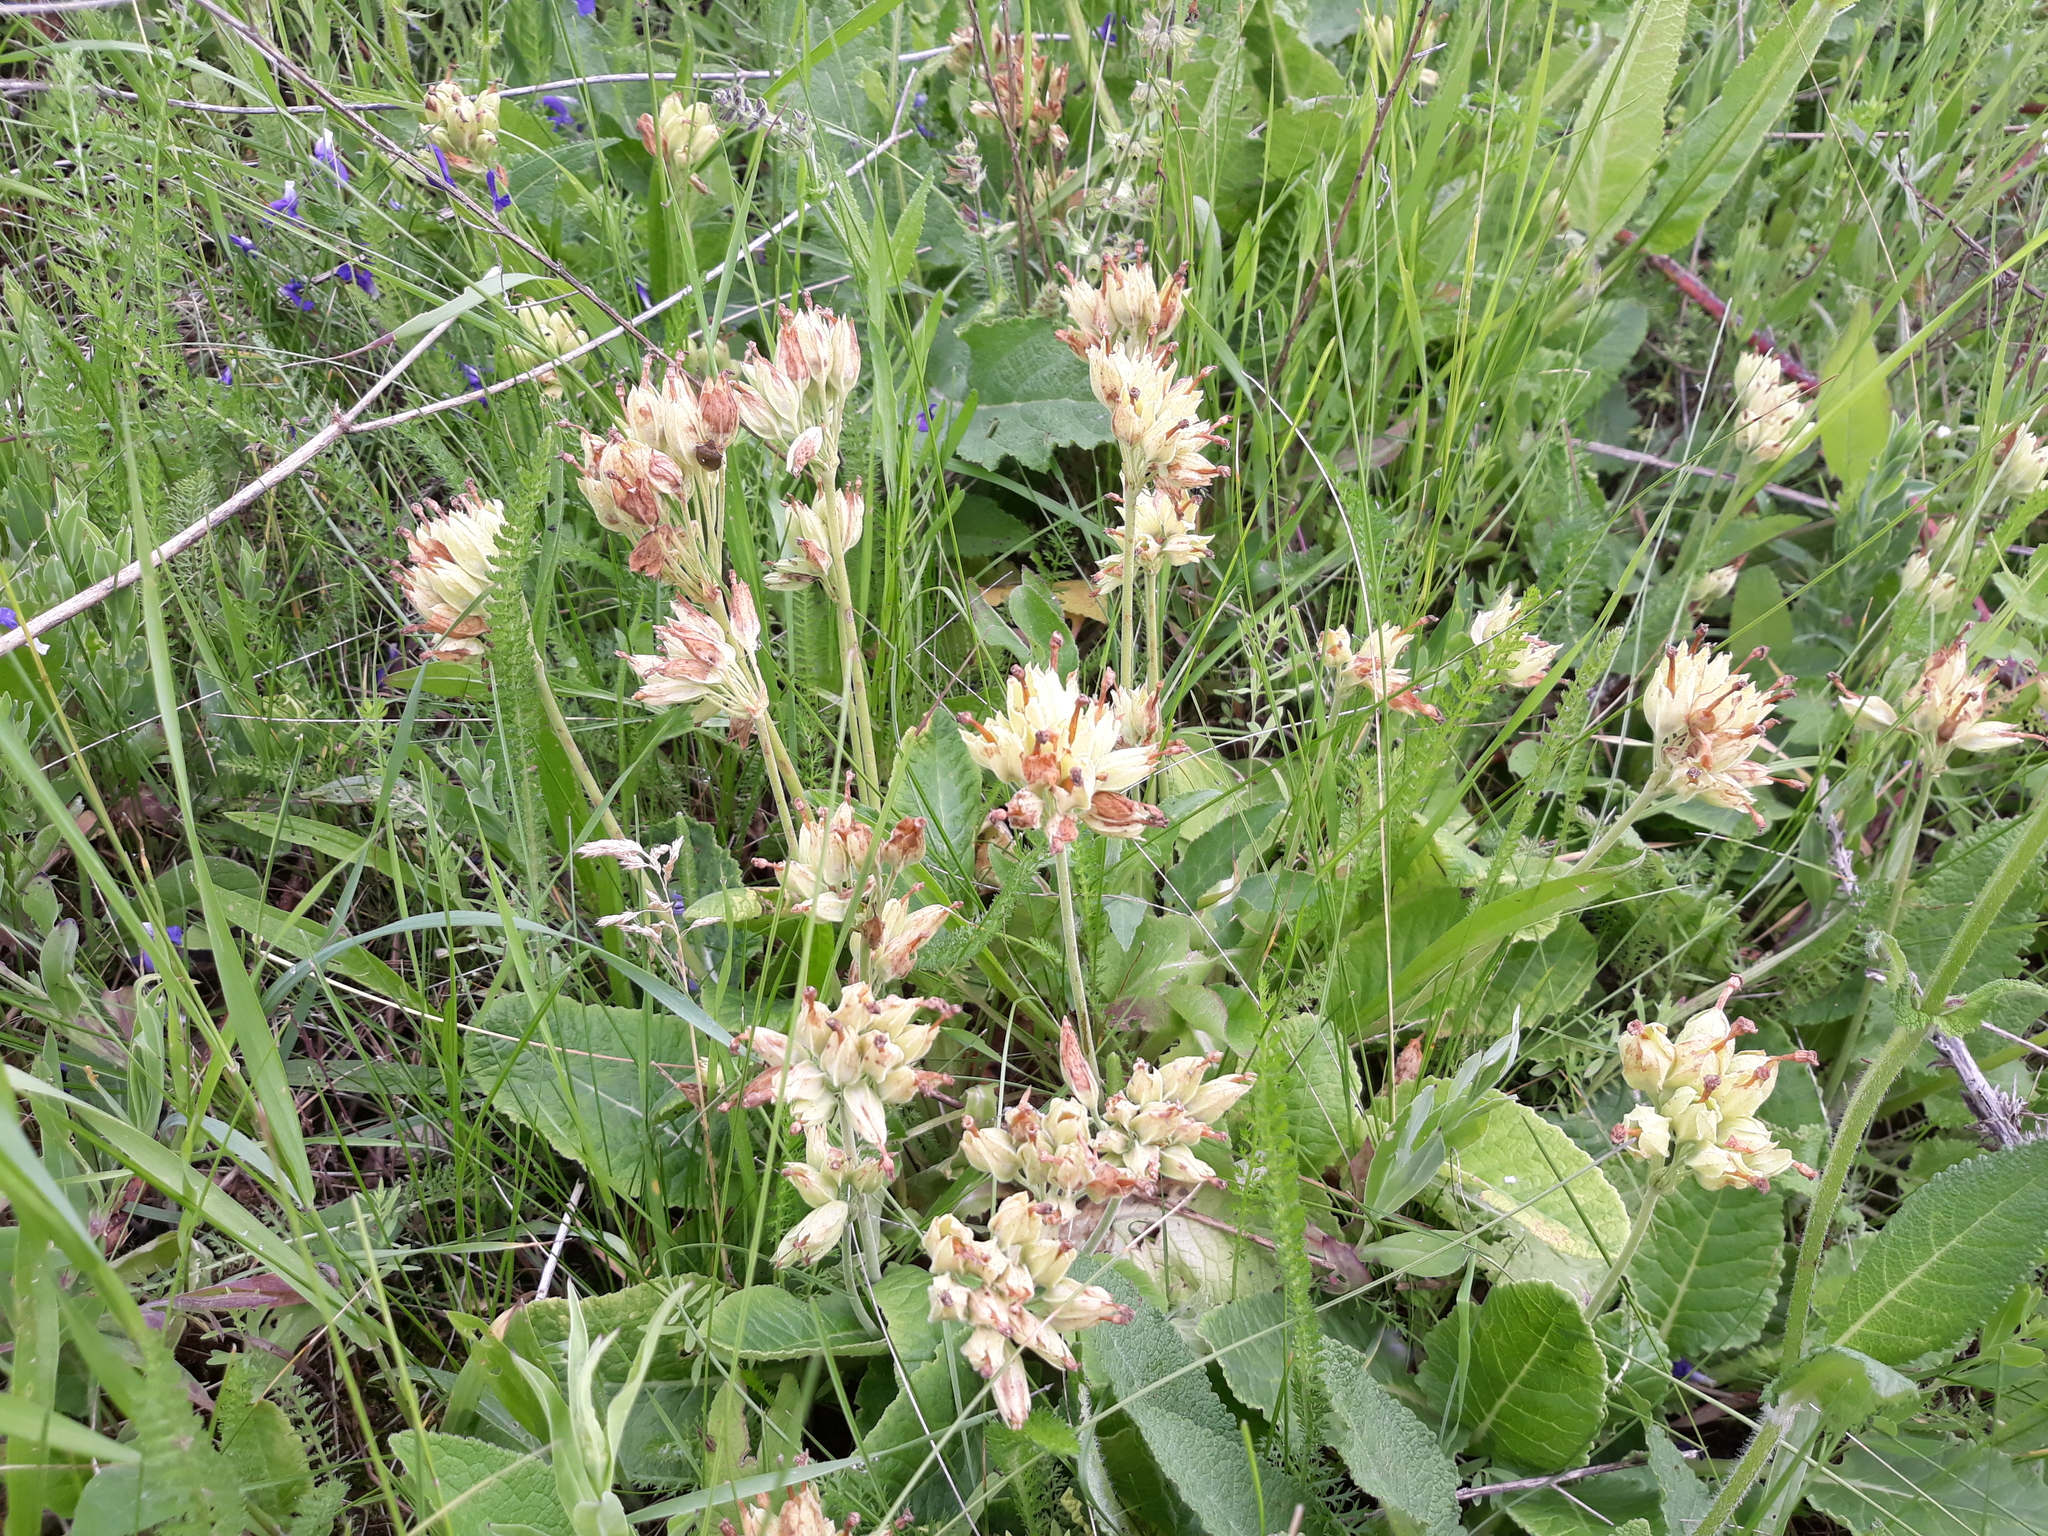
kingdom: Plantae
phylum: Tracheophyta
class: Magnoliopsida
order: Ericales
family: Primulaceae
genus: Primula
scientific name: Primula veris
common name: Cowslip
